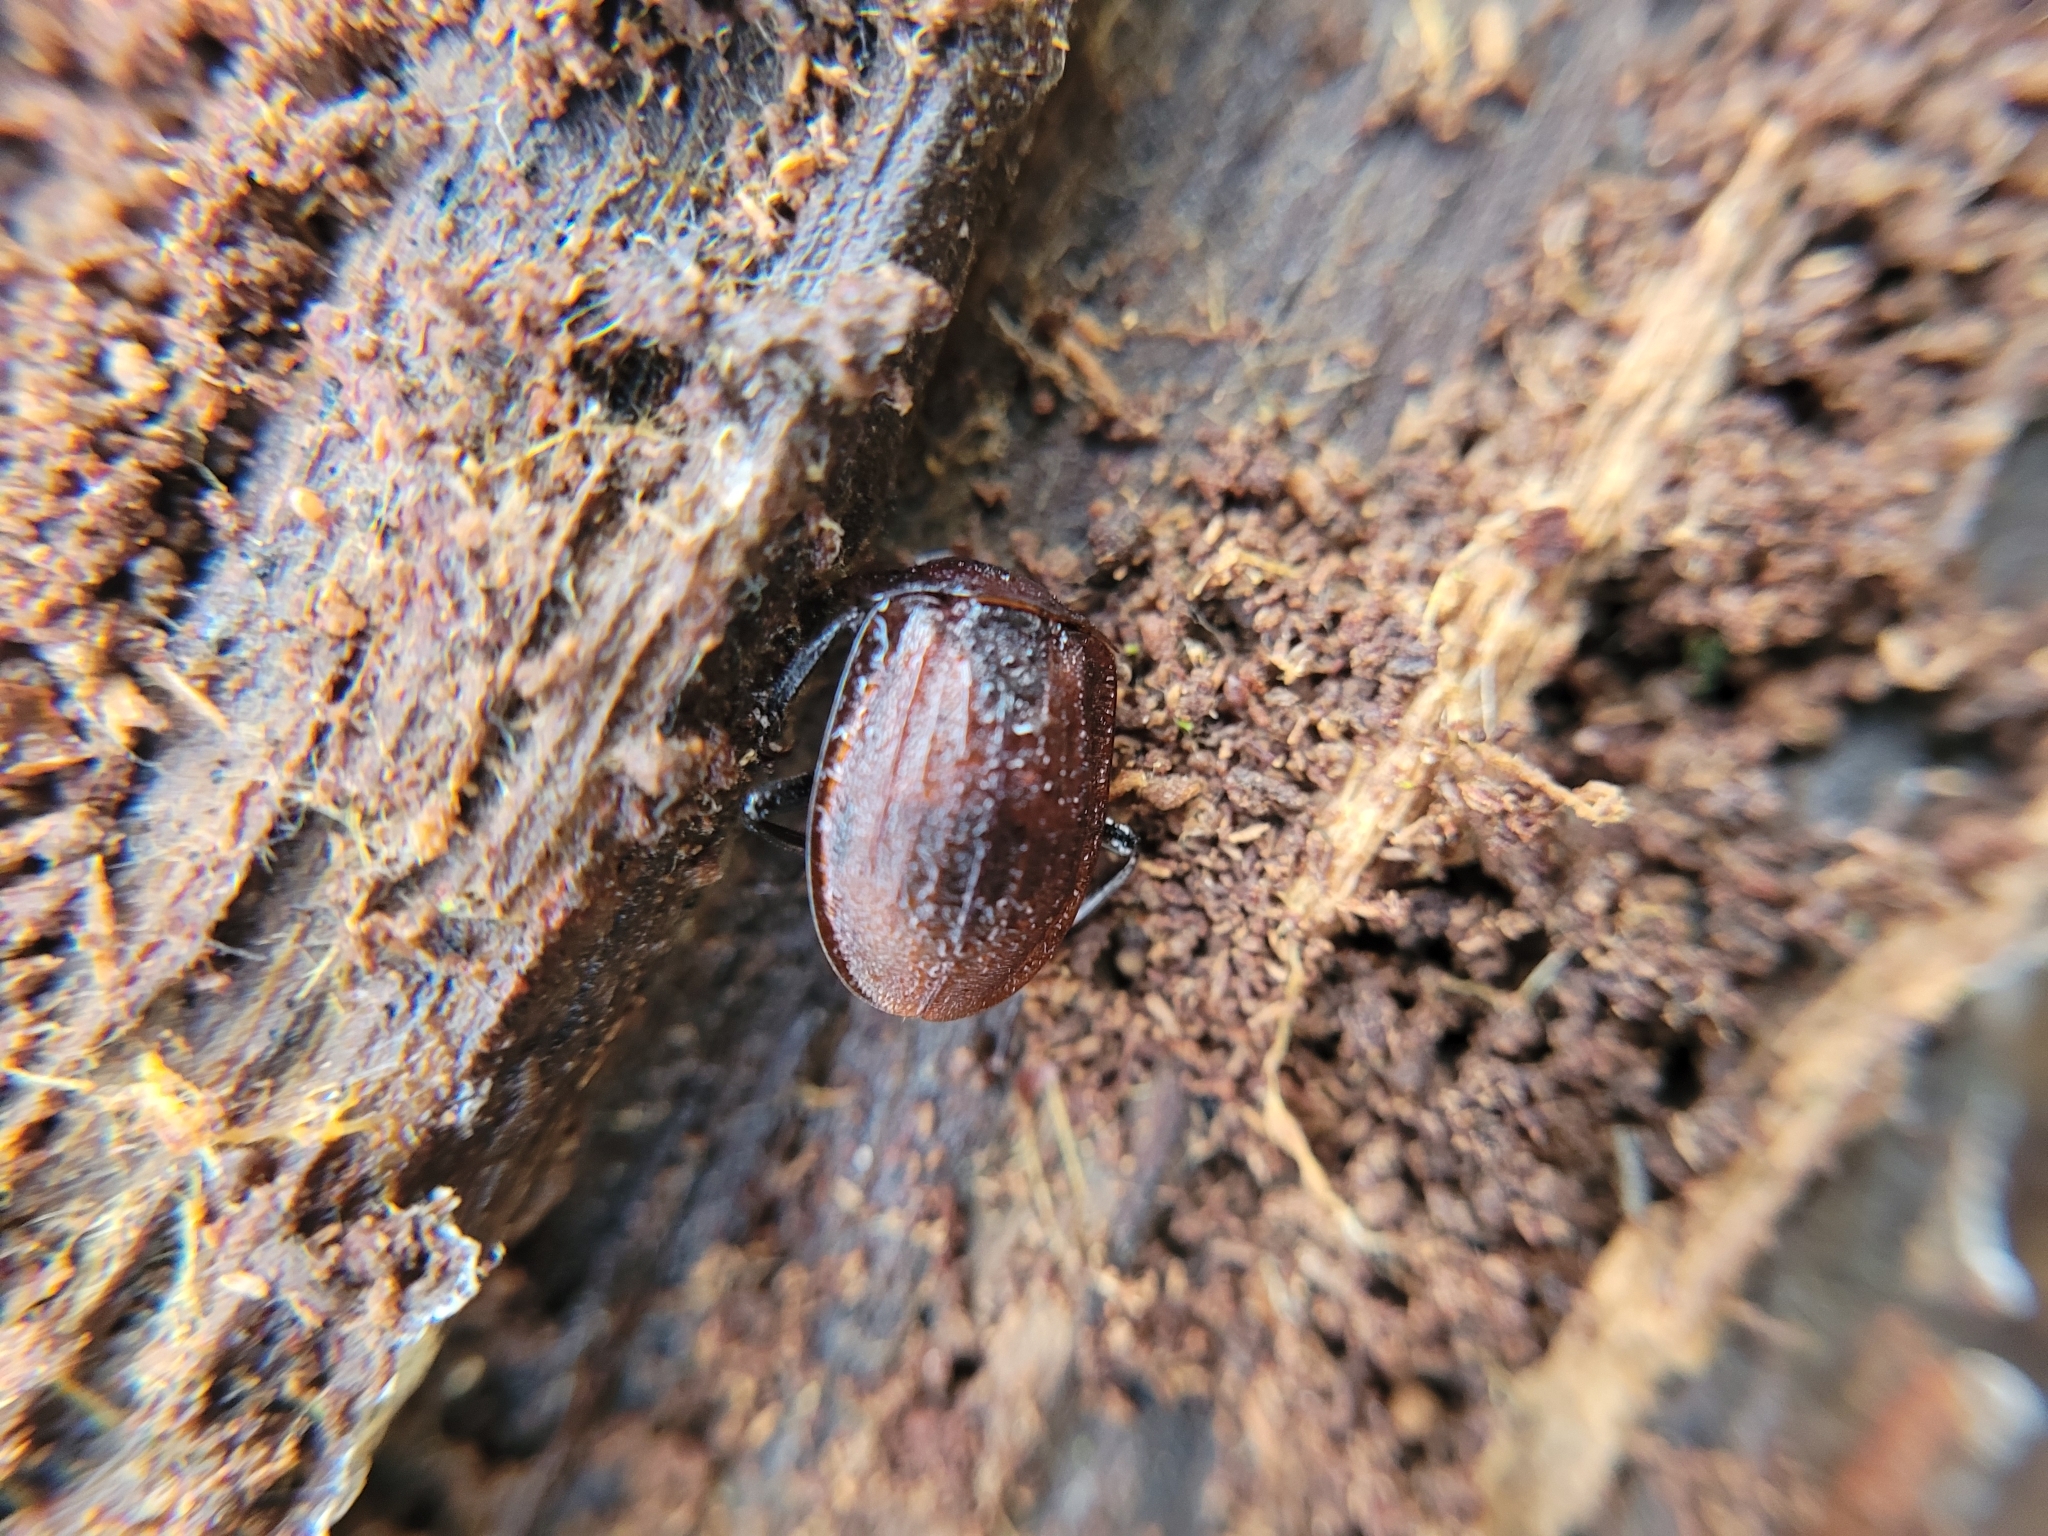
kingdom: Animalia
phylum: Arthropoda
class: Insecta
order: Coleoptera
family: Staphylinidae
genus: Silpha
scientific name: Silpha atrata
